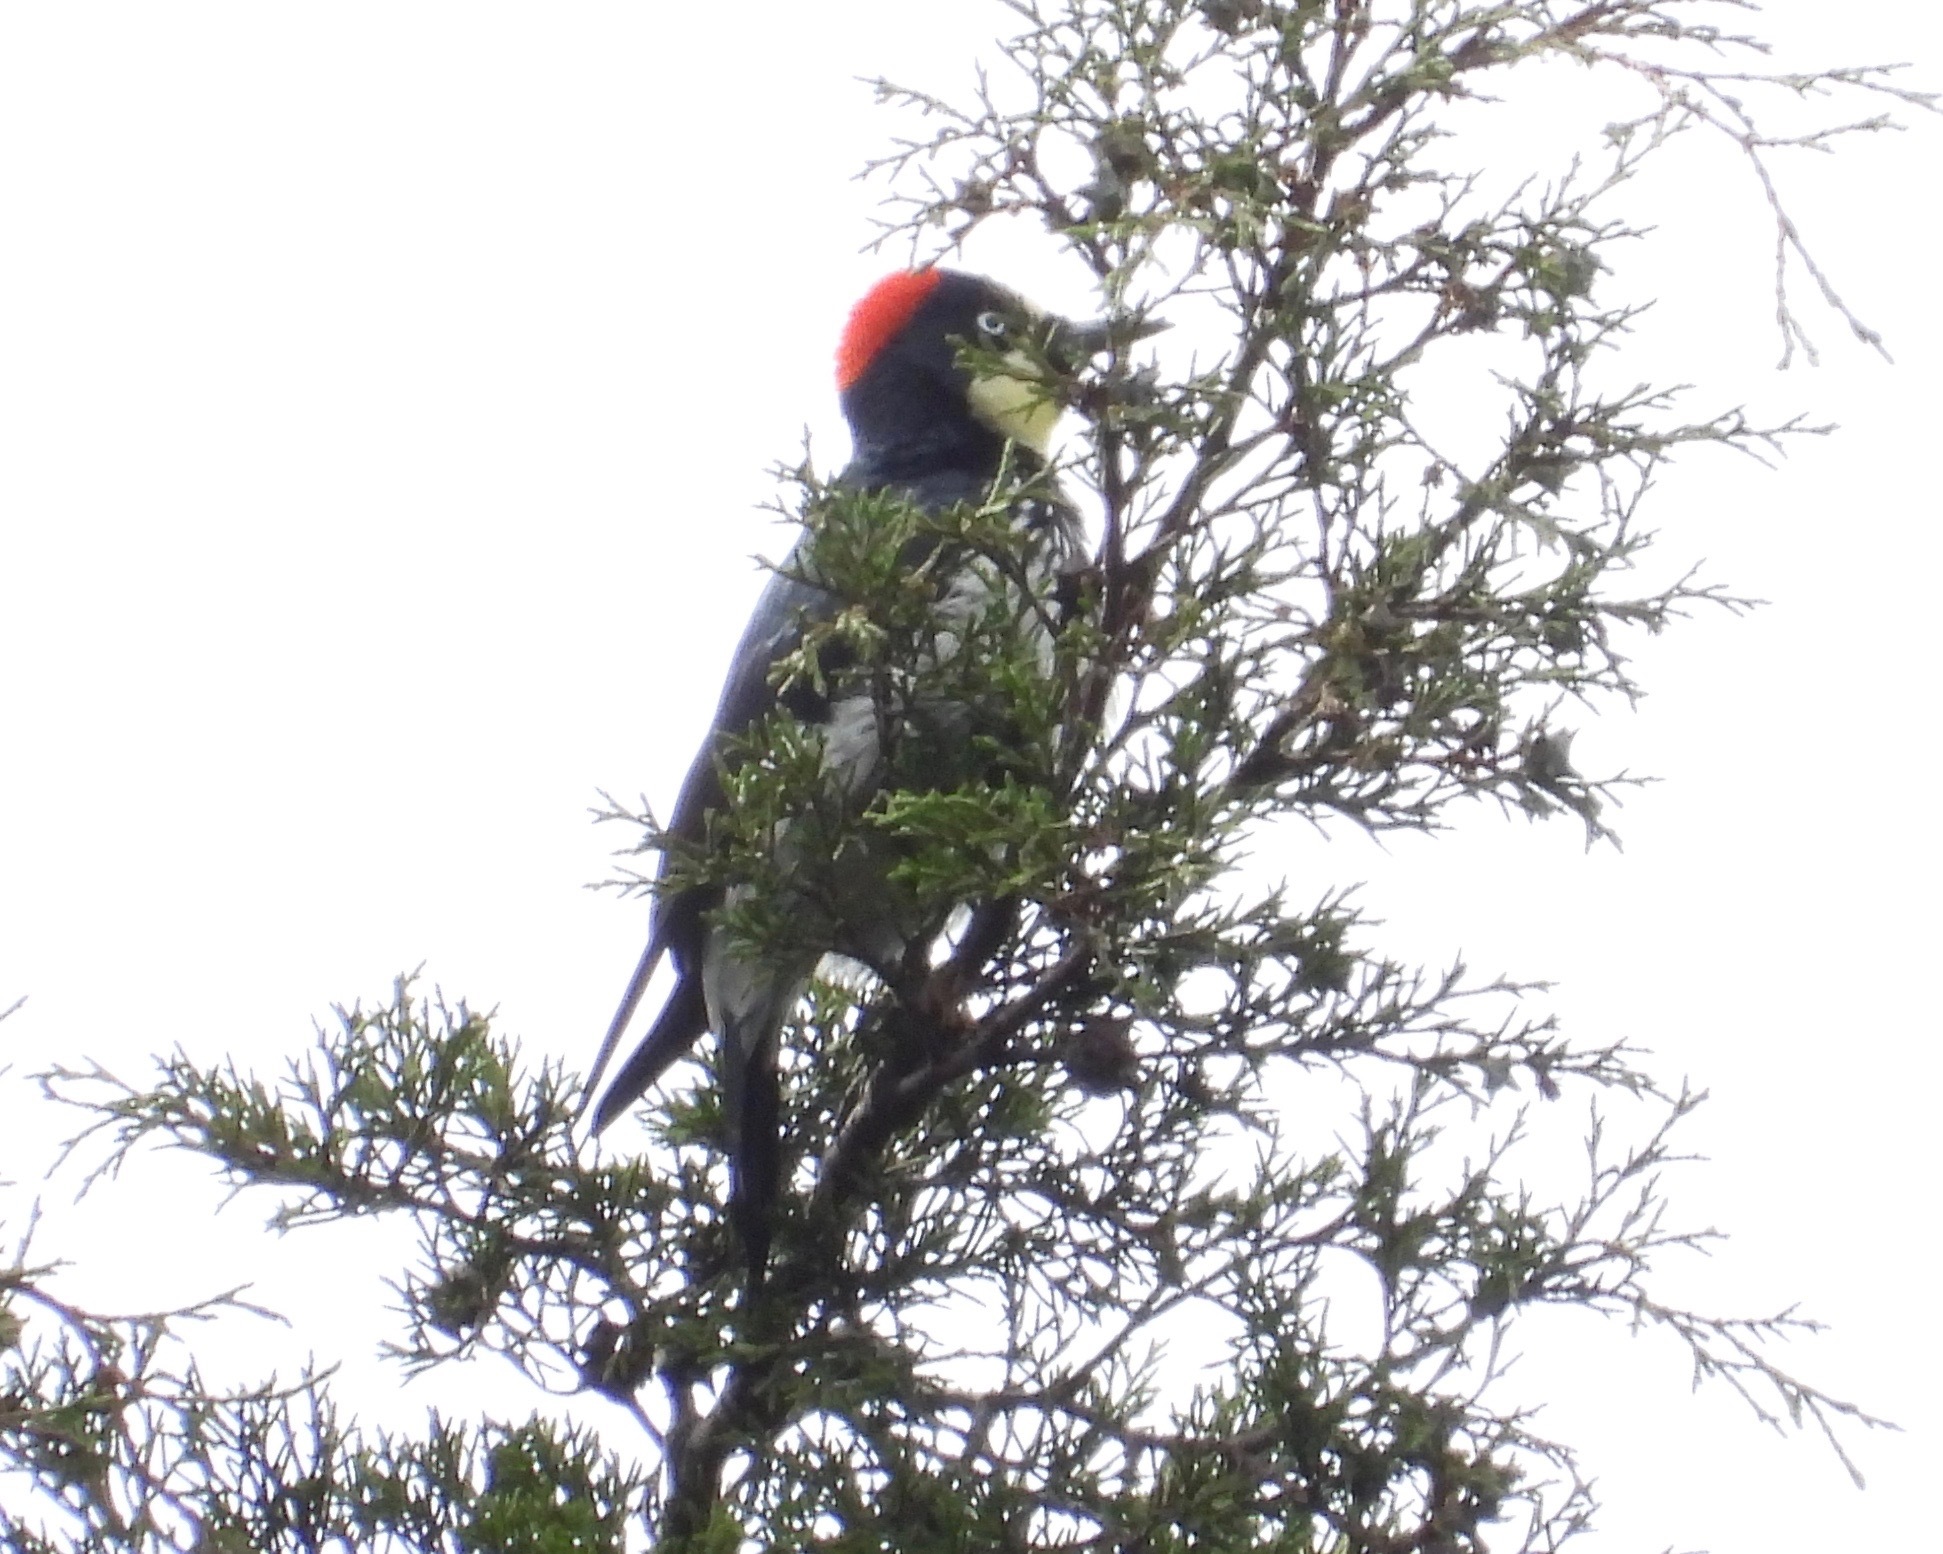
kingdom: Animalia
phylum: Chordata
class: Aves
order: Piciformes
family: Picidae
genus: Melanerpes
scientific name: Melanerpes formicivorus
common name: Acorn woodpecker
